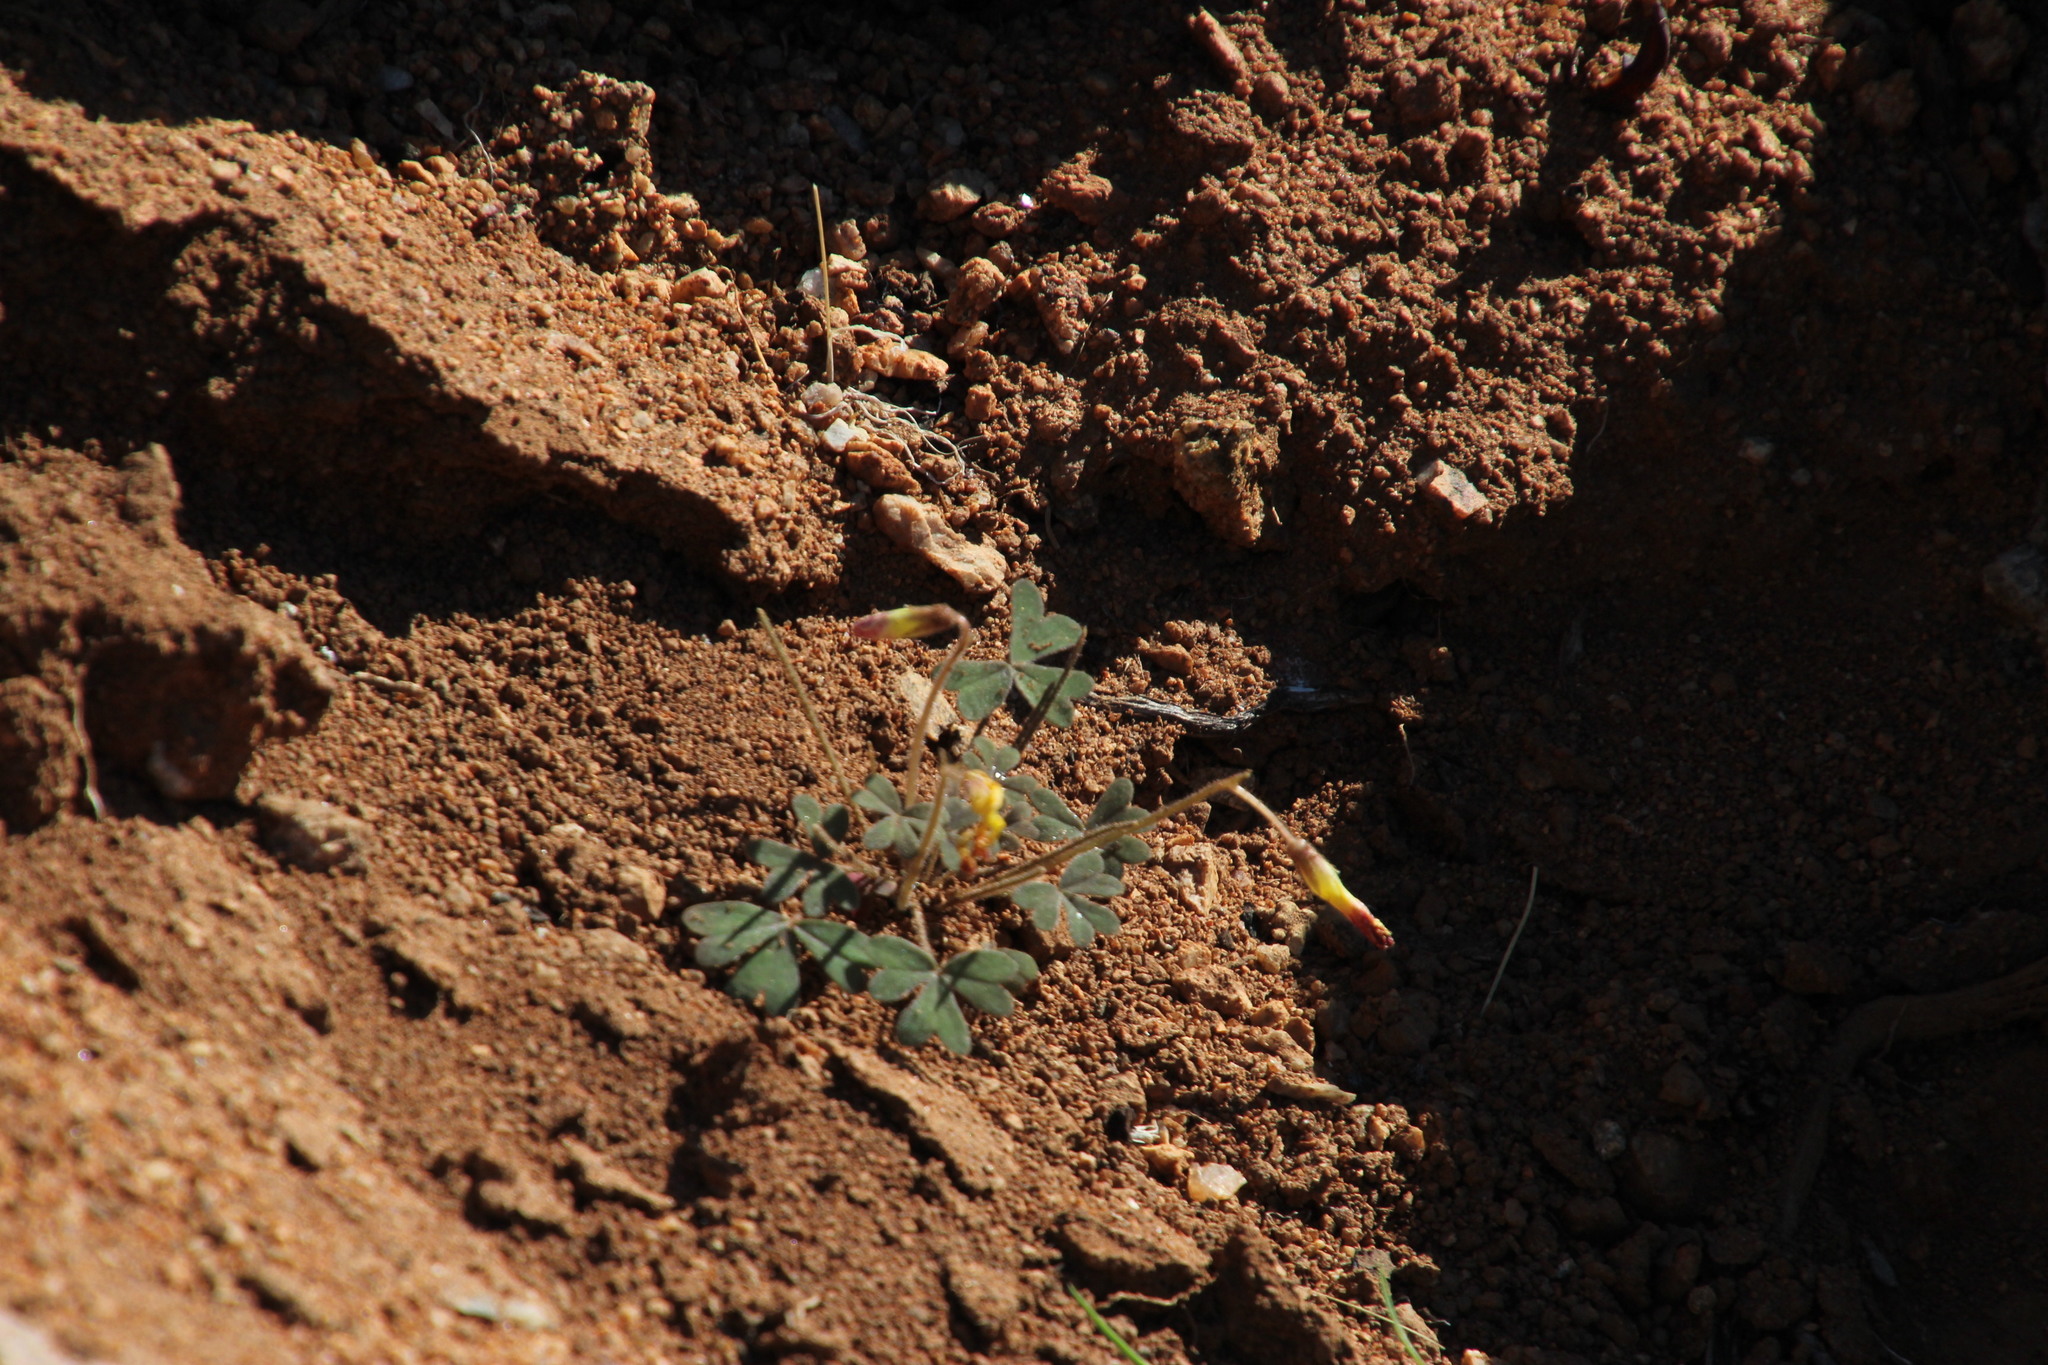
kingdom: Plantae
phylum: Tracheophyta
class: Magnoliopsida
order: Oxalidales
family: Oxalidaceae
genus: Oxalis
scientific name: Oxalis obtusa
